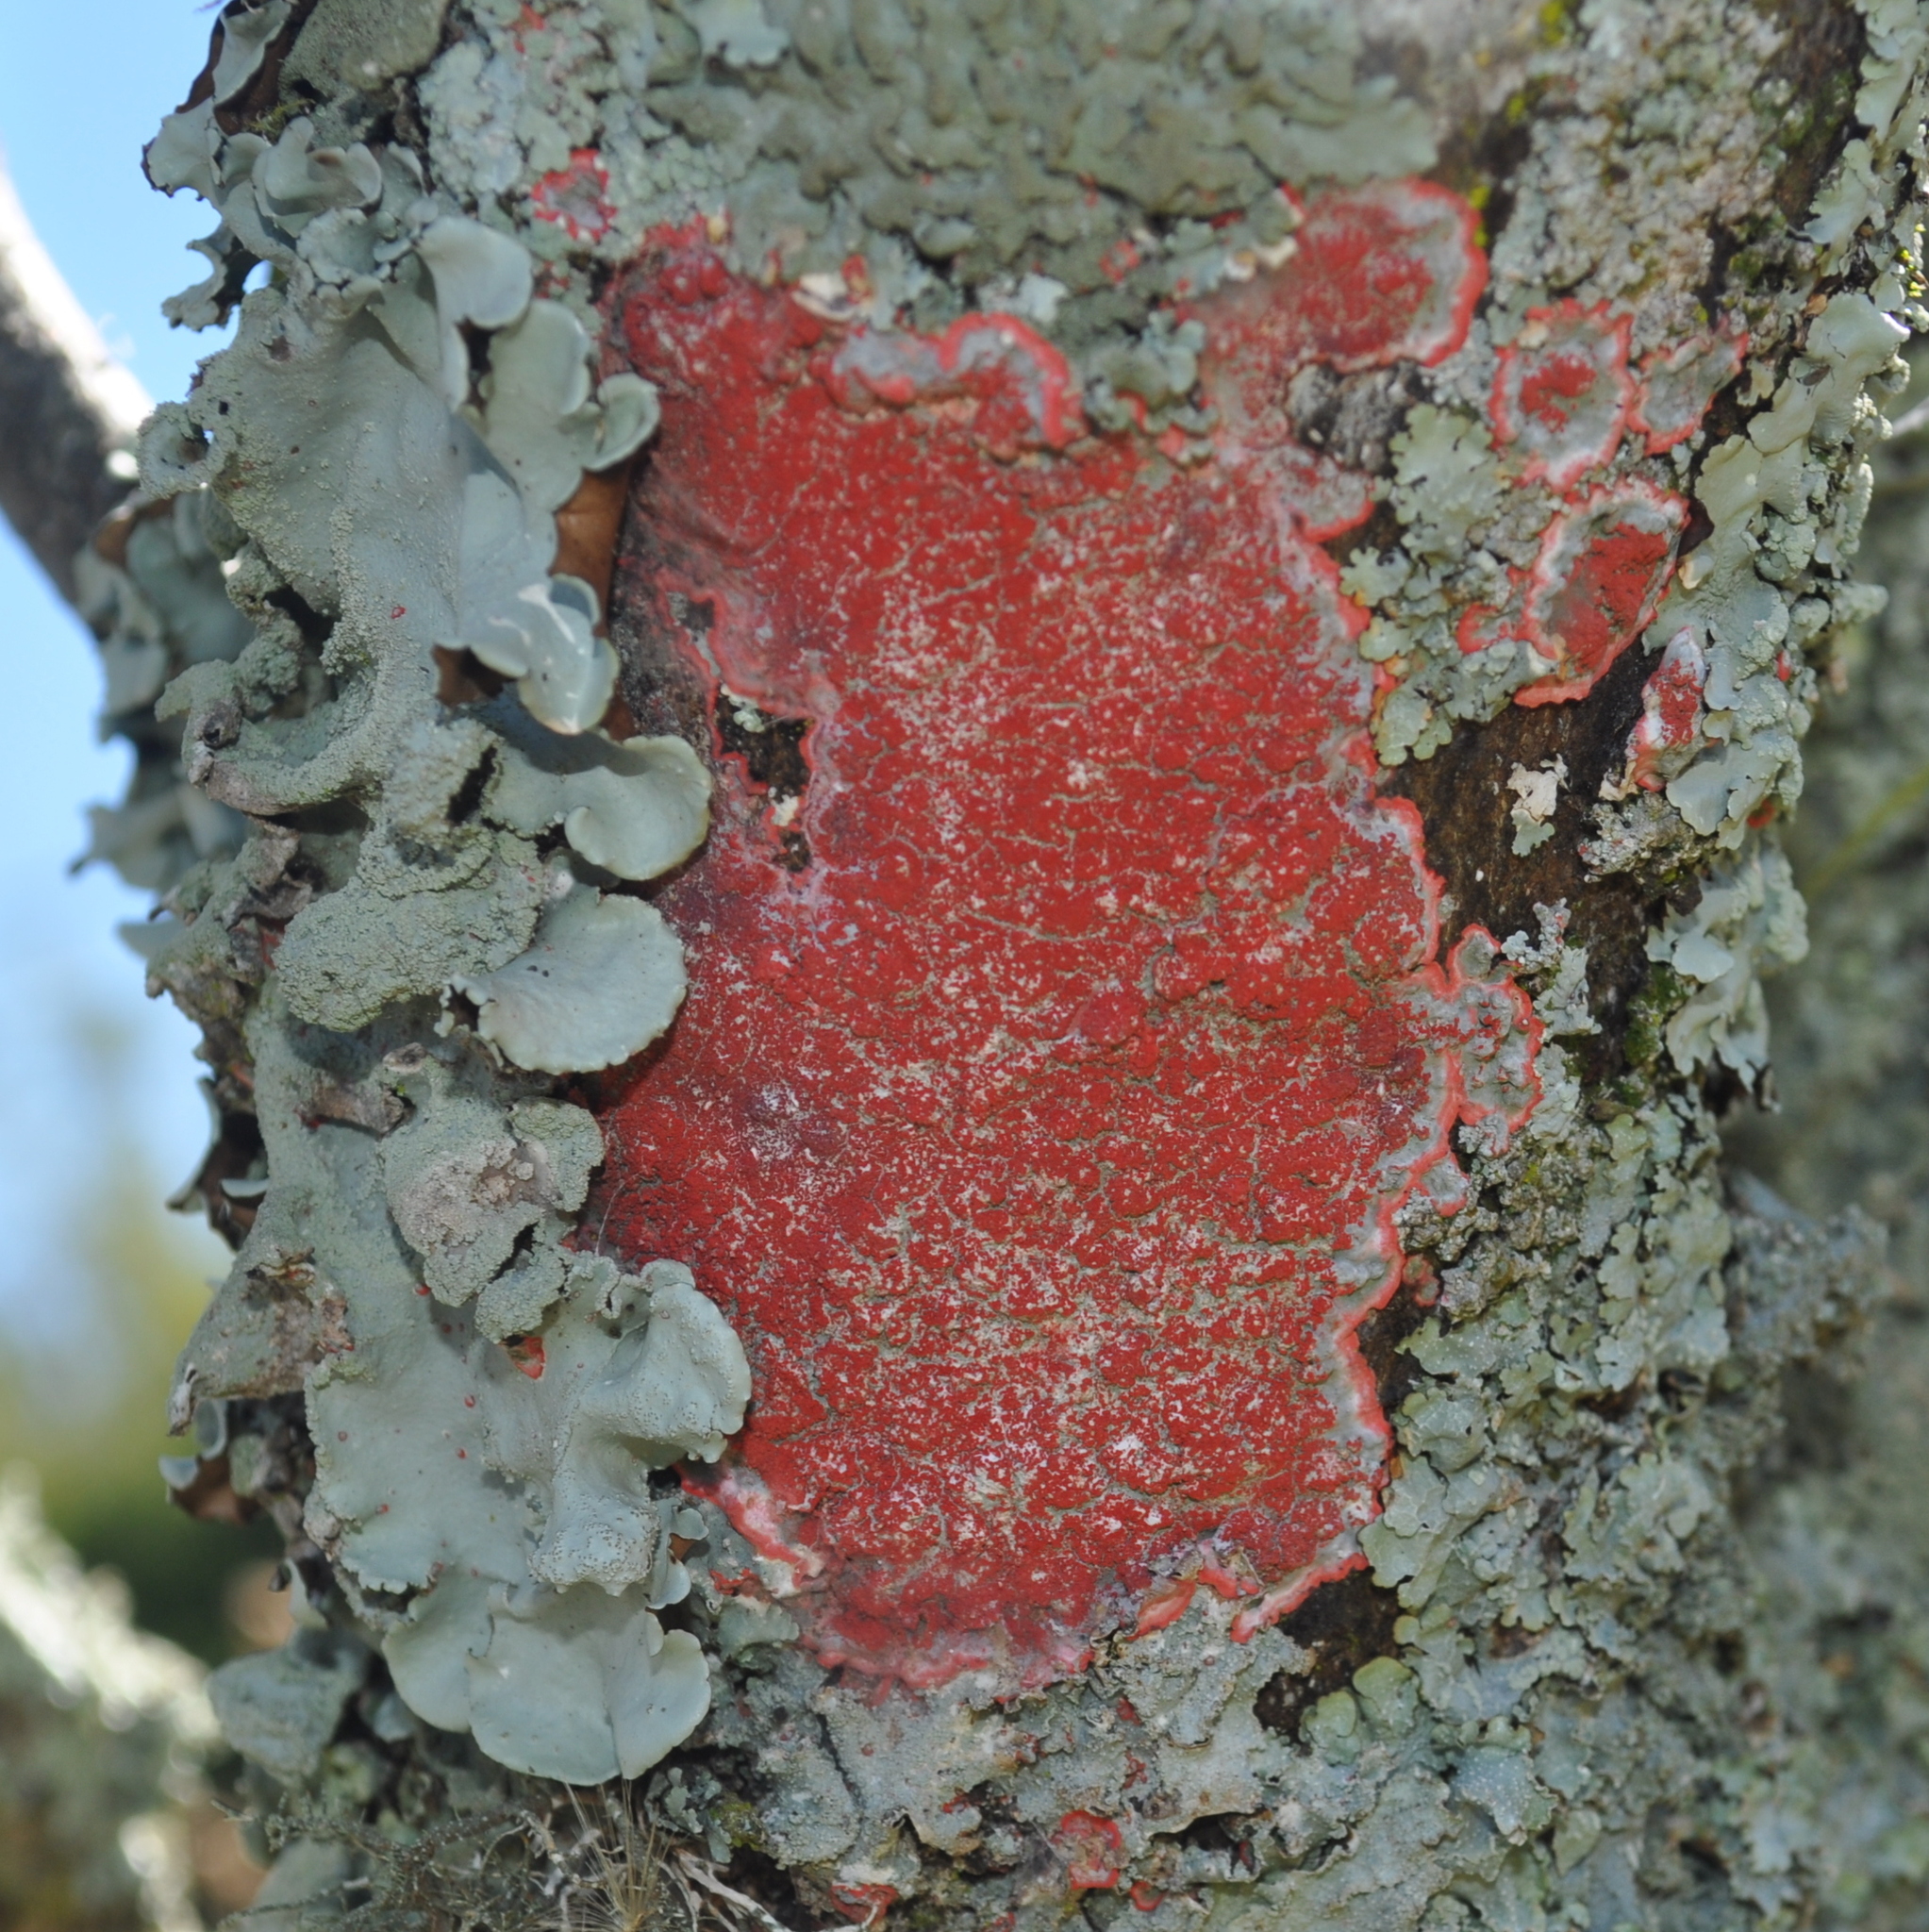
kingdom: Fungi
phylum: Ascomycota
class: Arthoniomycetes
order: Arthoniales
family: Arthoniaceae
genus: Herpothallon
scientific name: Herpothallon rubrocinctum
